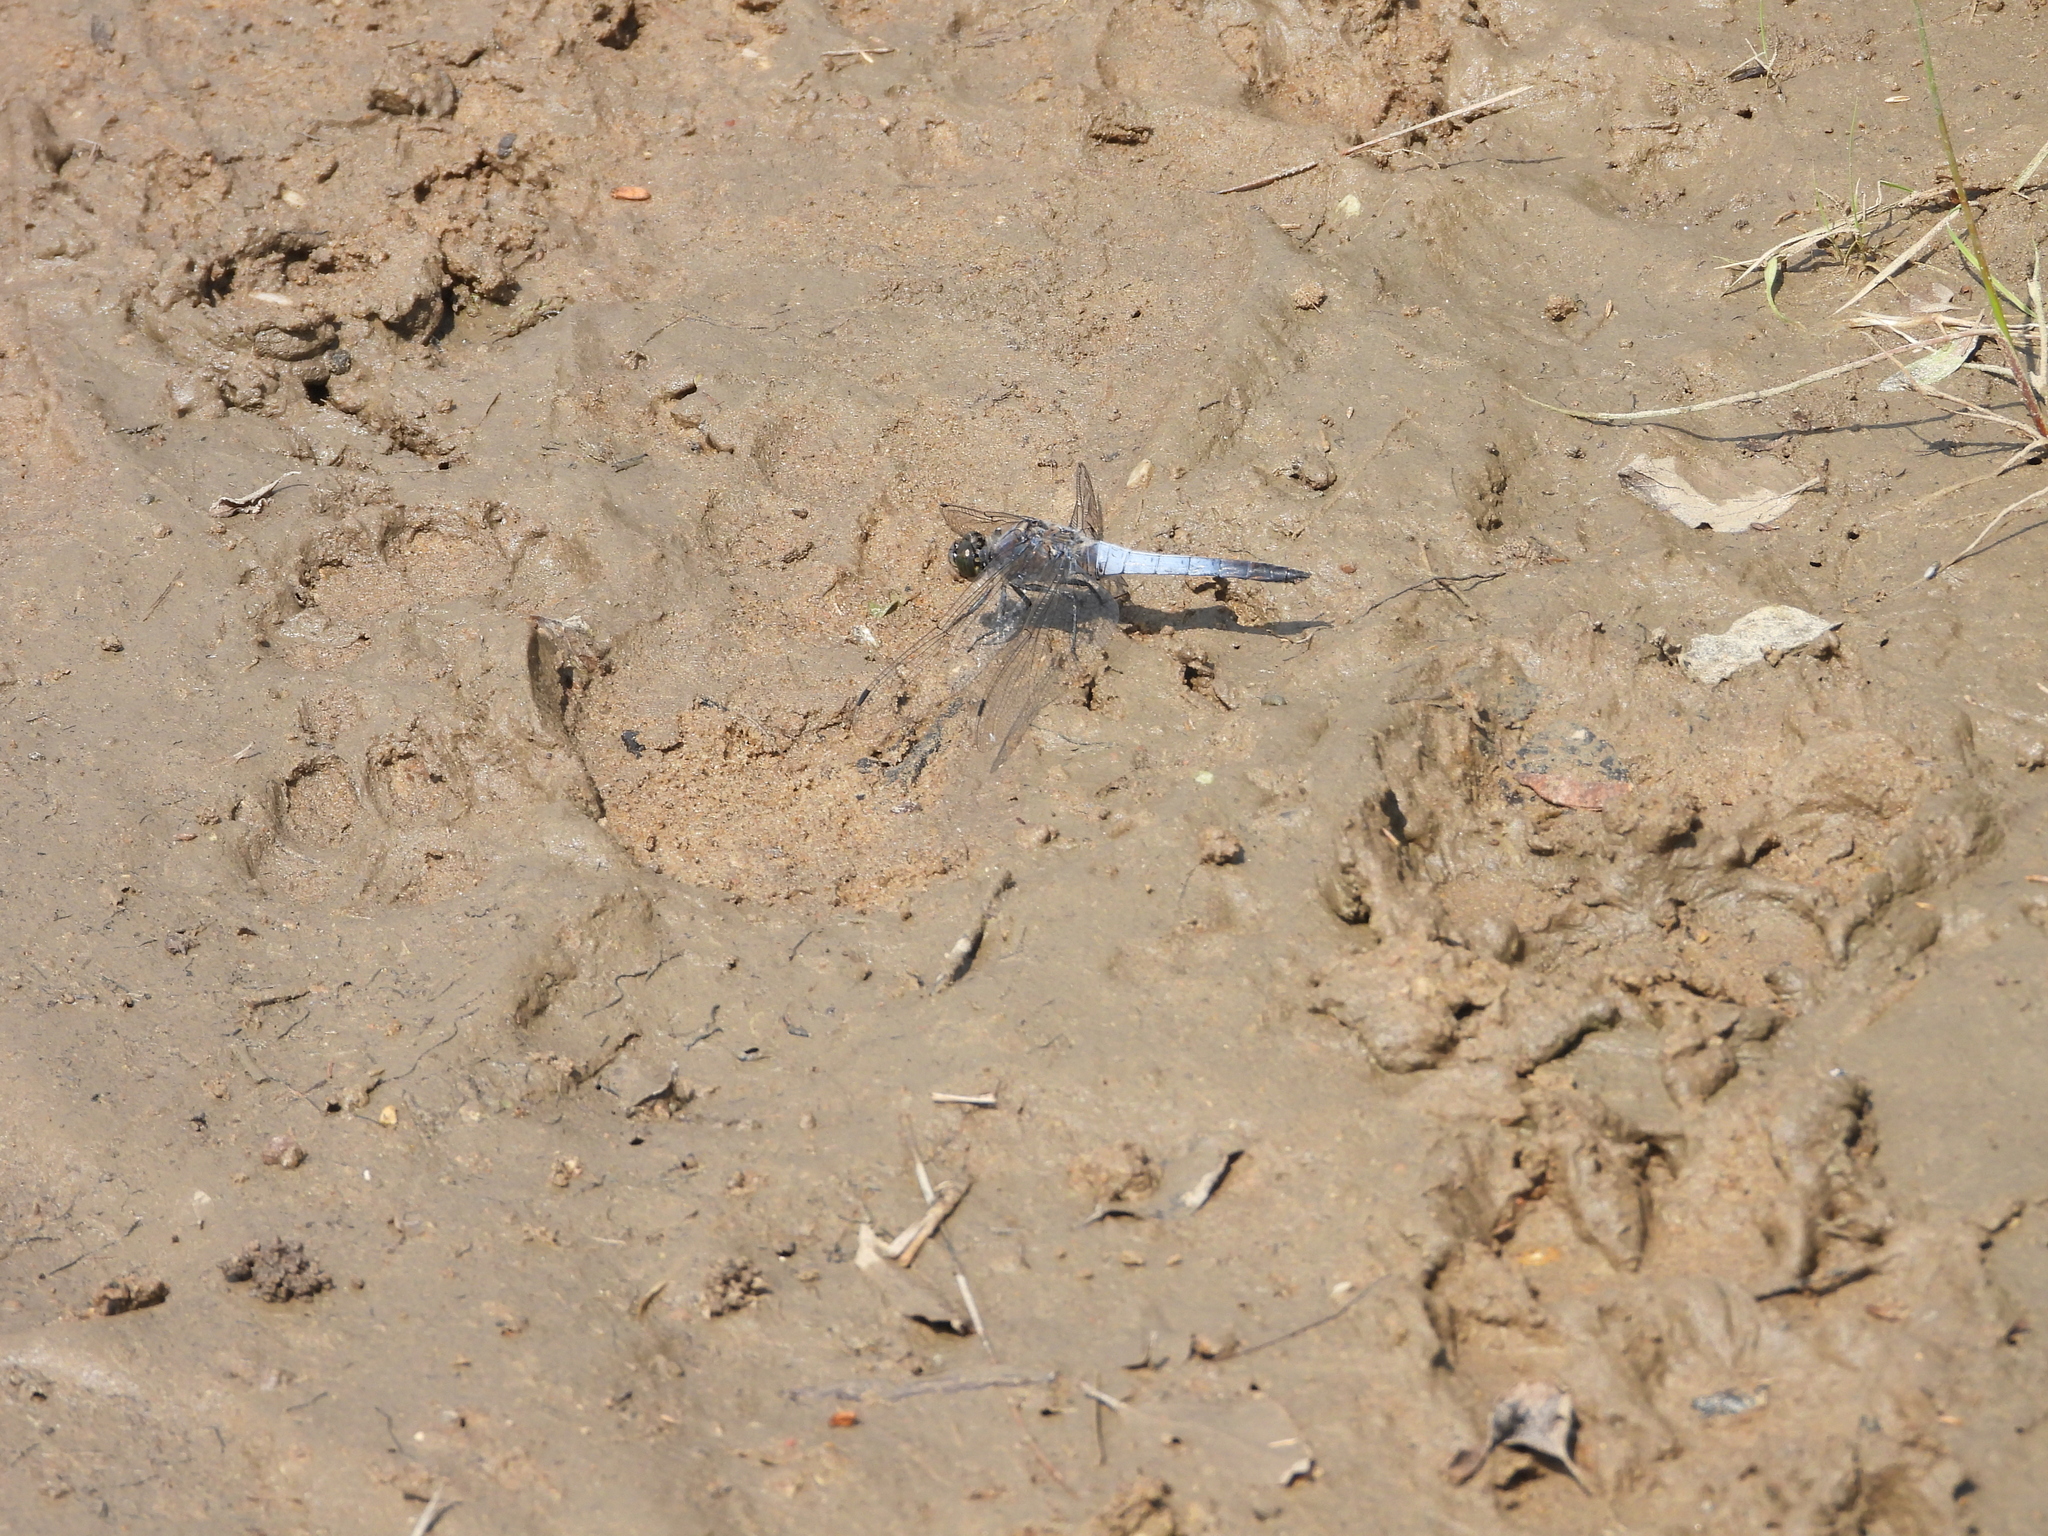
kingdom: Animalia
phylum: Arthropoda
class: Insecta
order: Odonata
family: Libellulidae
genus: Orthetrum
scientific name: Orthetrum cancellatum
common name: Black-tailed skimmer
